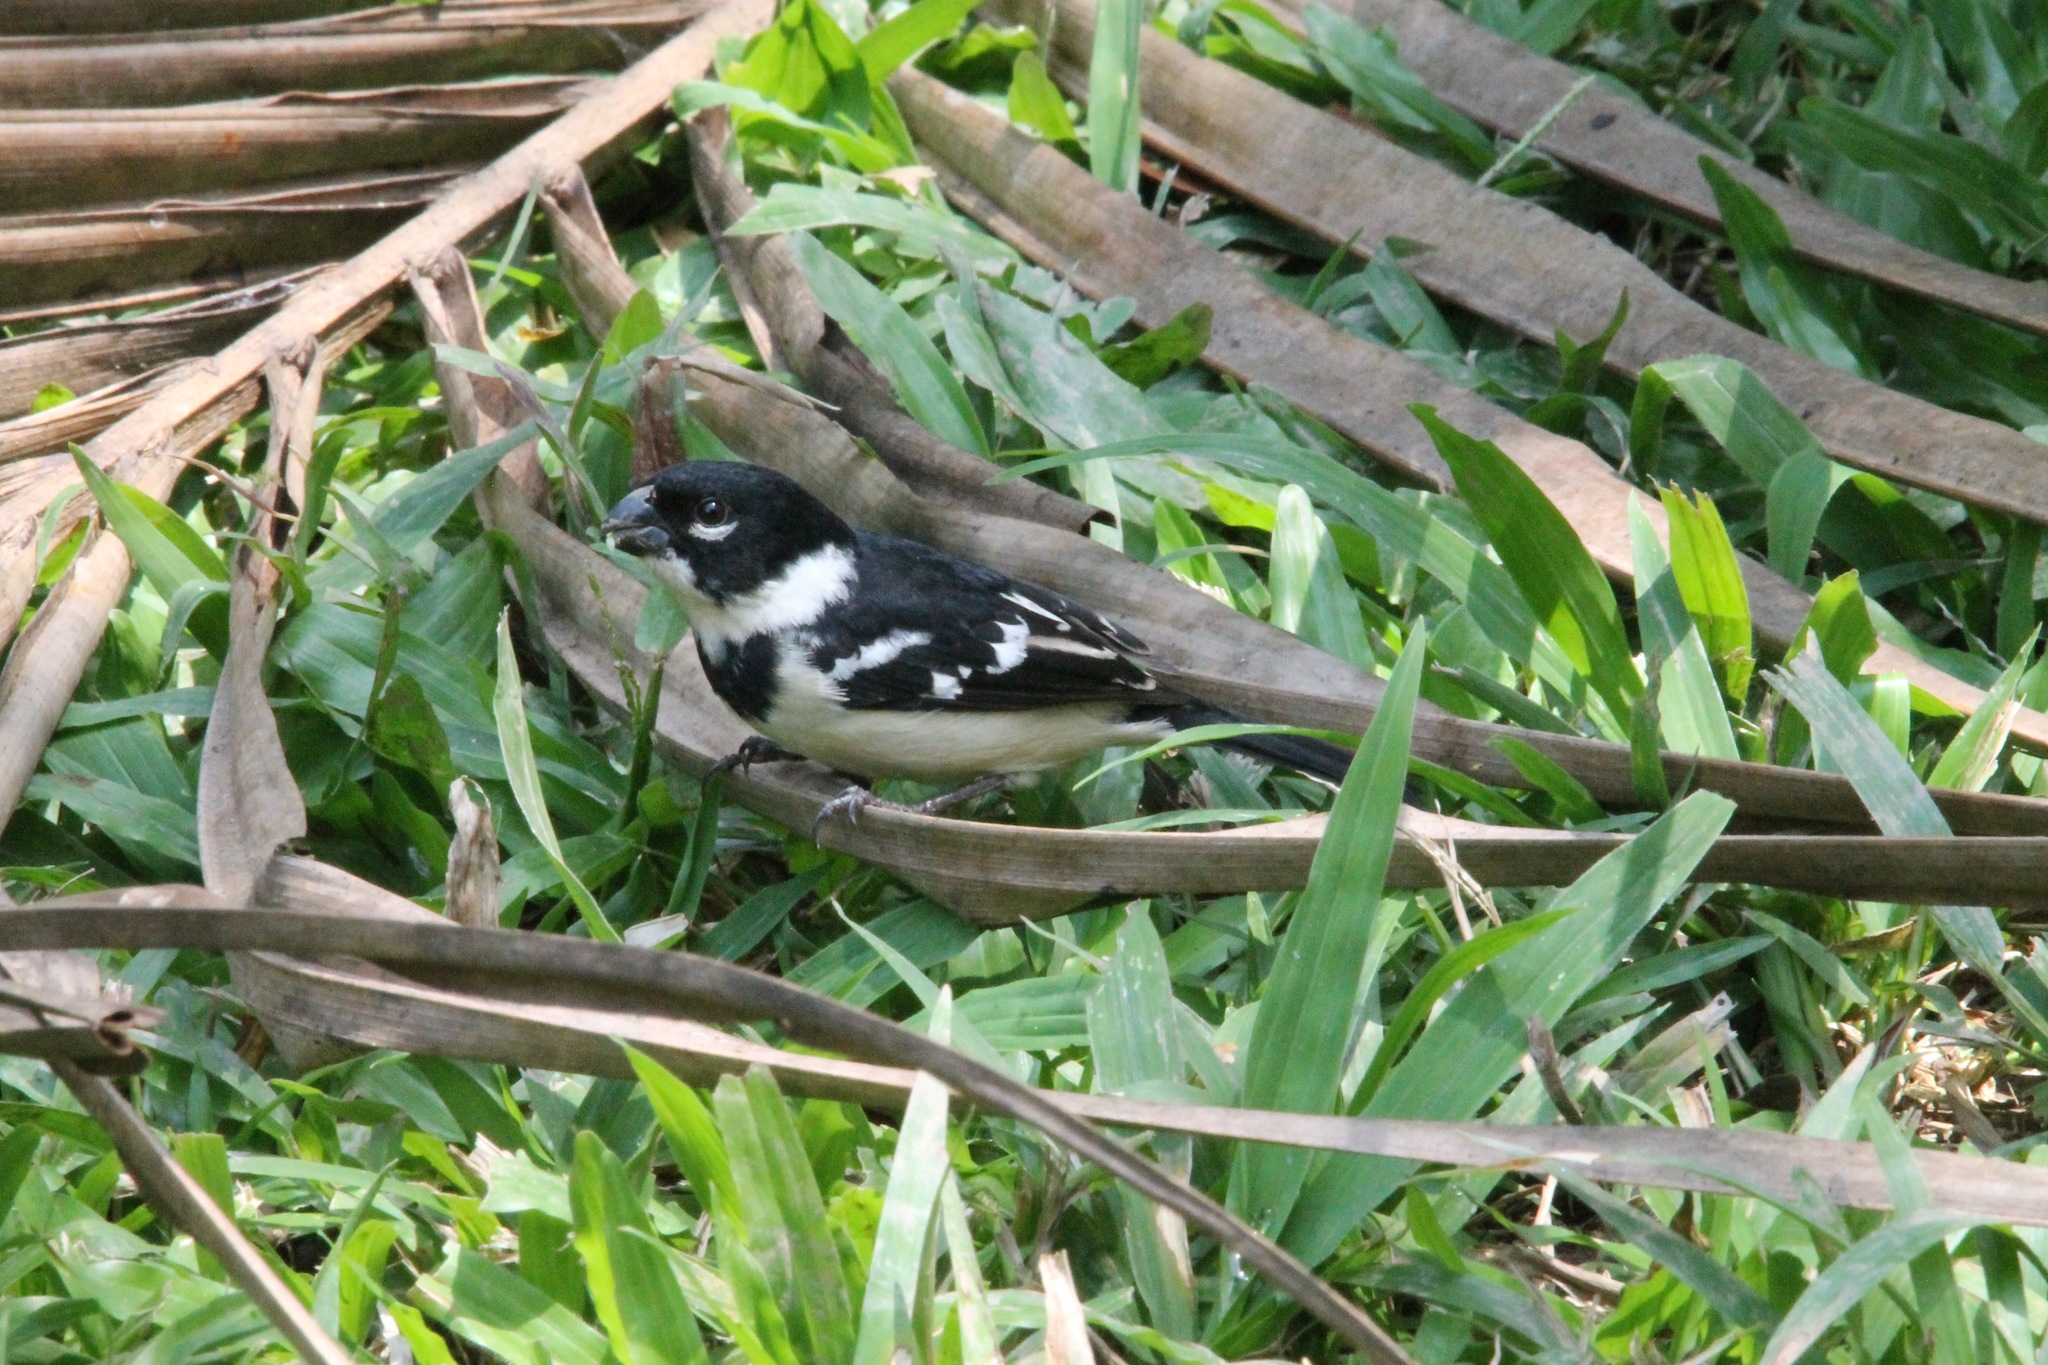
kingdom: Animalia
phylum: Chordata
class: Aves
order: Passeriformes
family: Thraupidae
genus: Sporophila
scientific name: Sporophila morelleti
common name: Morelet's seedeater
